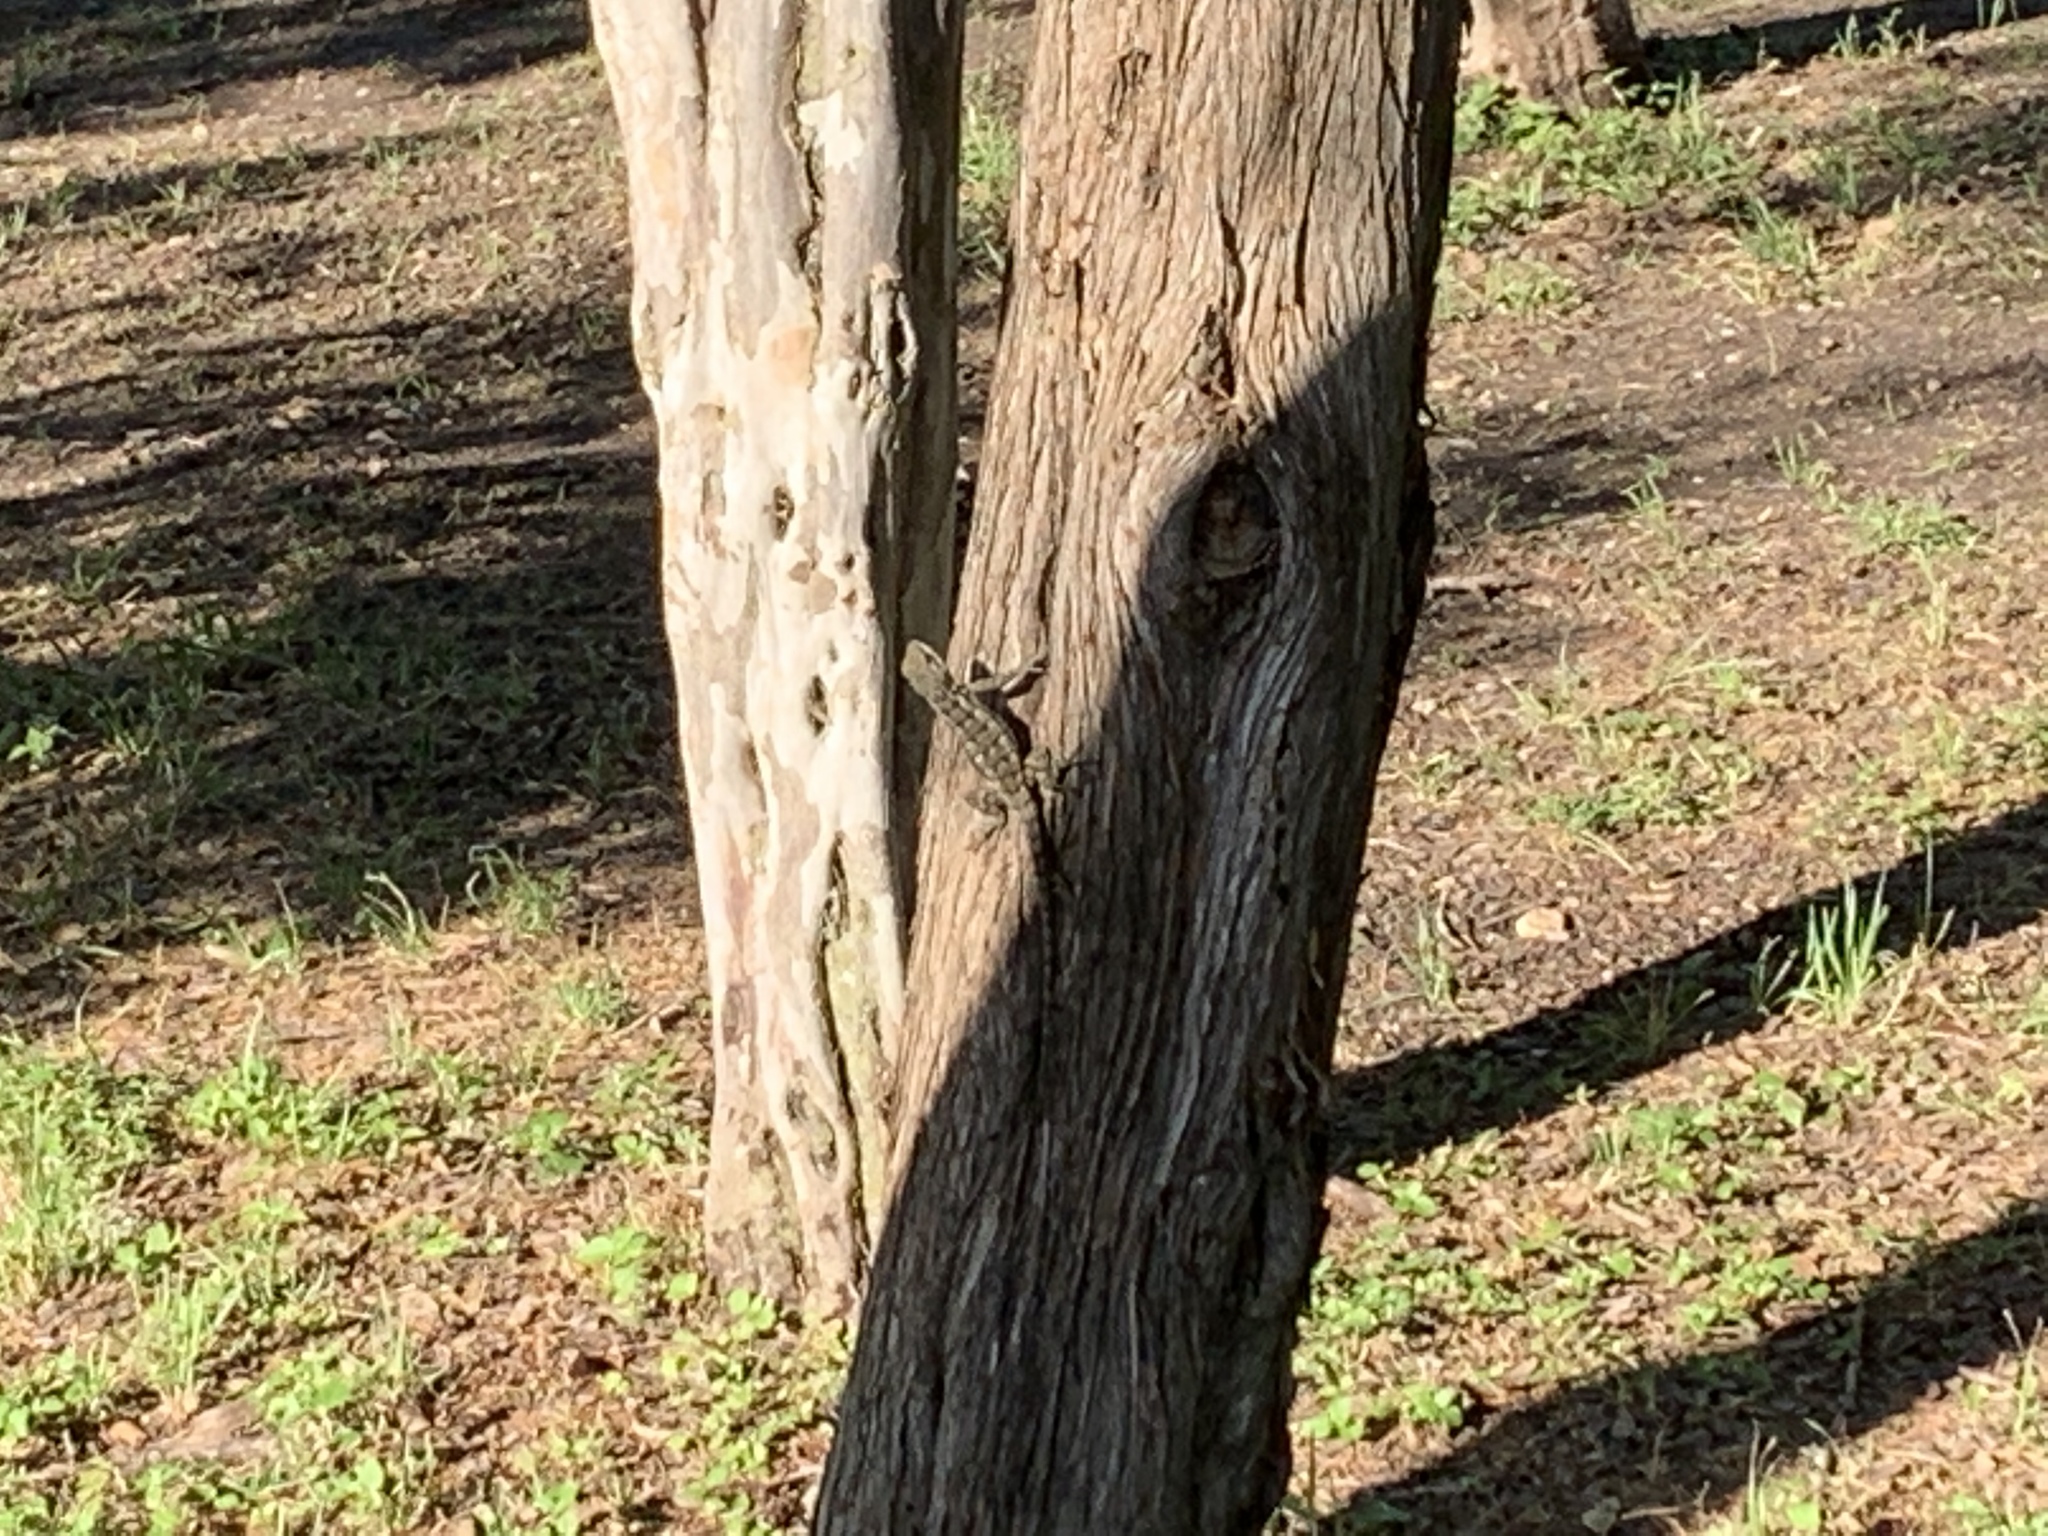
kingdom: Animalia
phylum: Chordata
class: Squamata
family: Phrynosomatidae
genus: Sceloporus
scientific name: Sceloporus variabilis
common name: Rosebelly lizard
